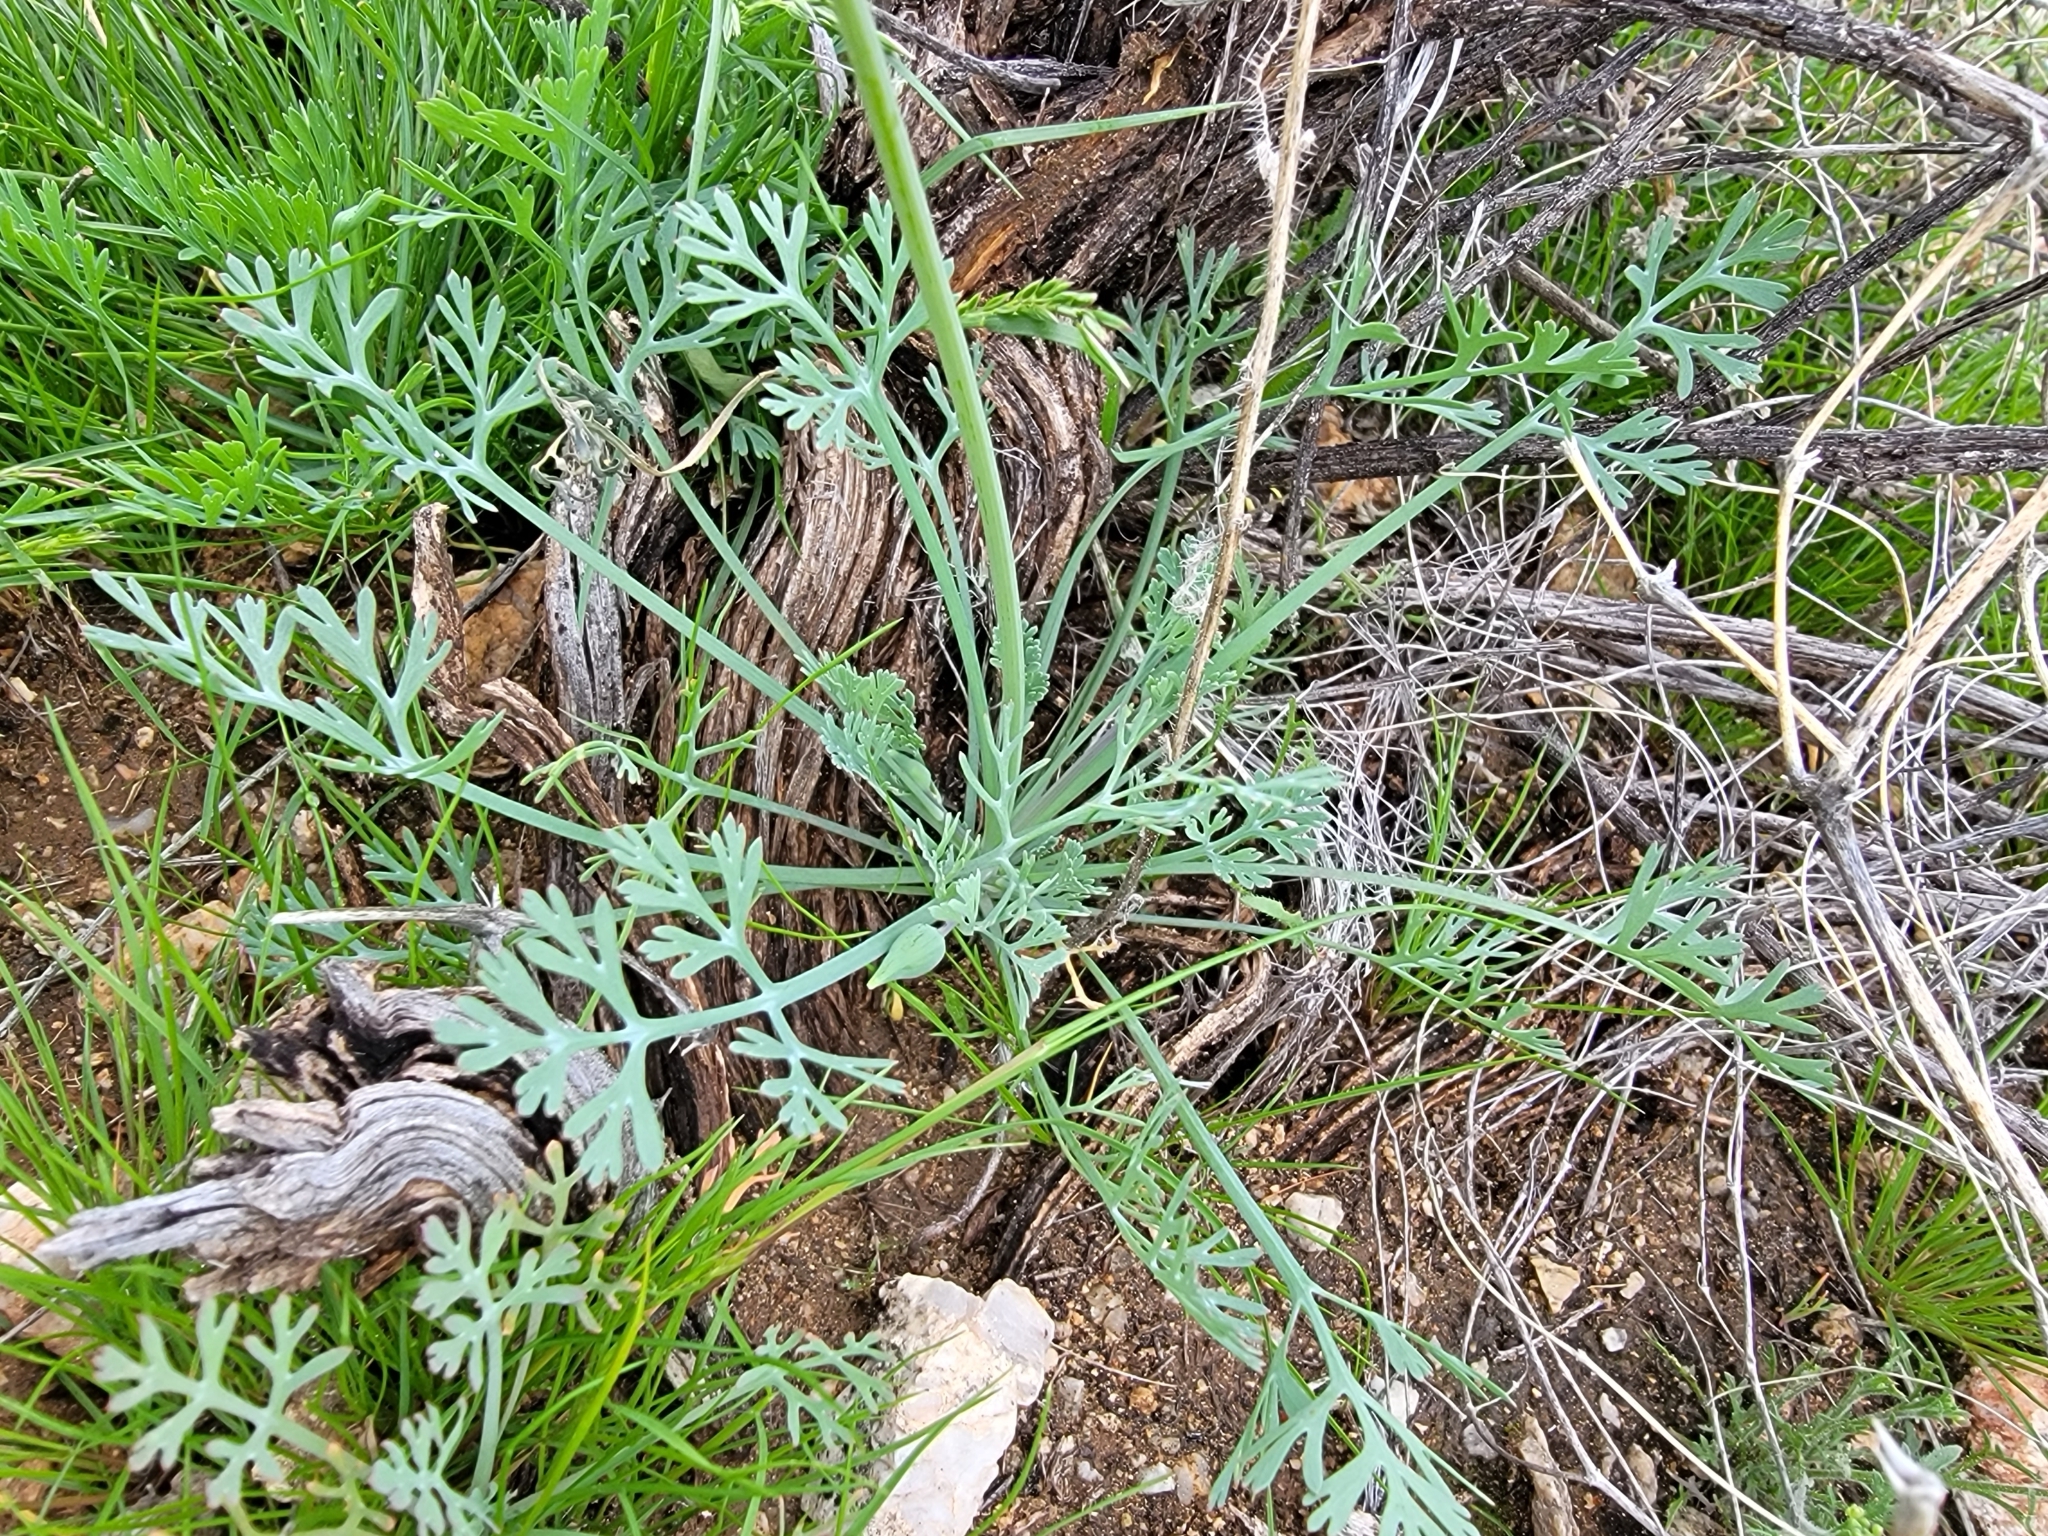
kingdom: Plantae
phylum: Tracheophyta
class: Magnoliopsida
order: Ranunculales
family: Papaveraceae
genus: Eschscholzia
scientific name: Eschscholzia californica
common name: California poppy
